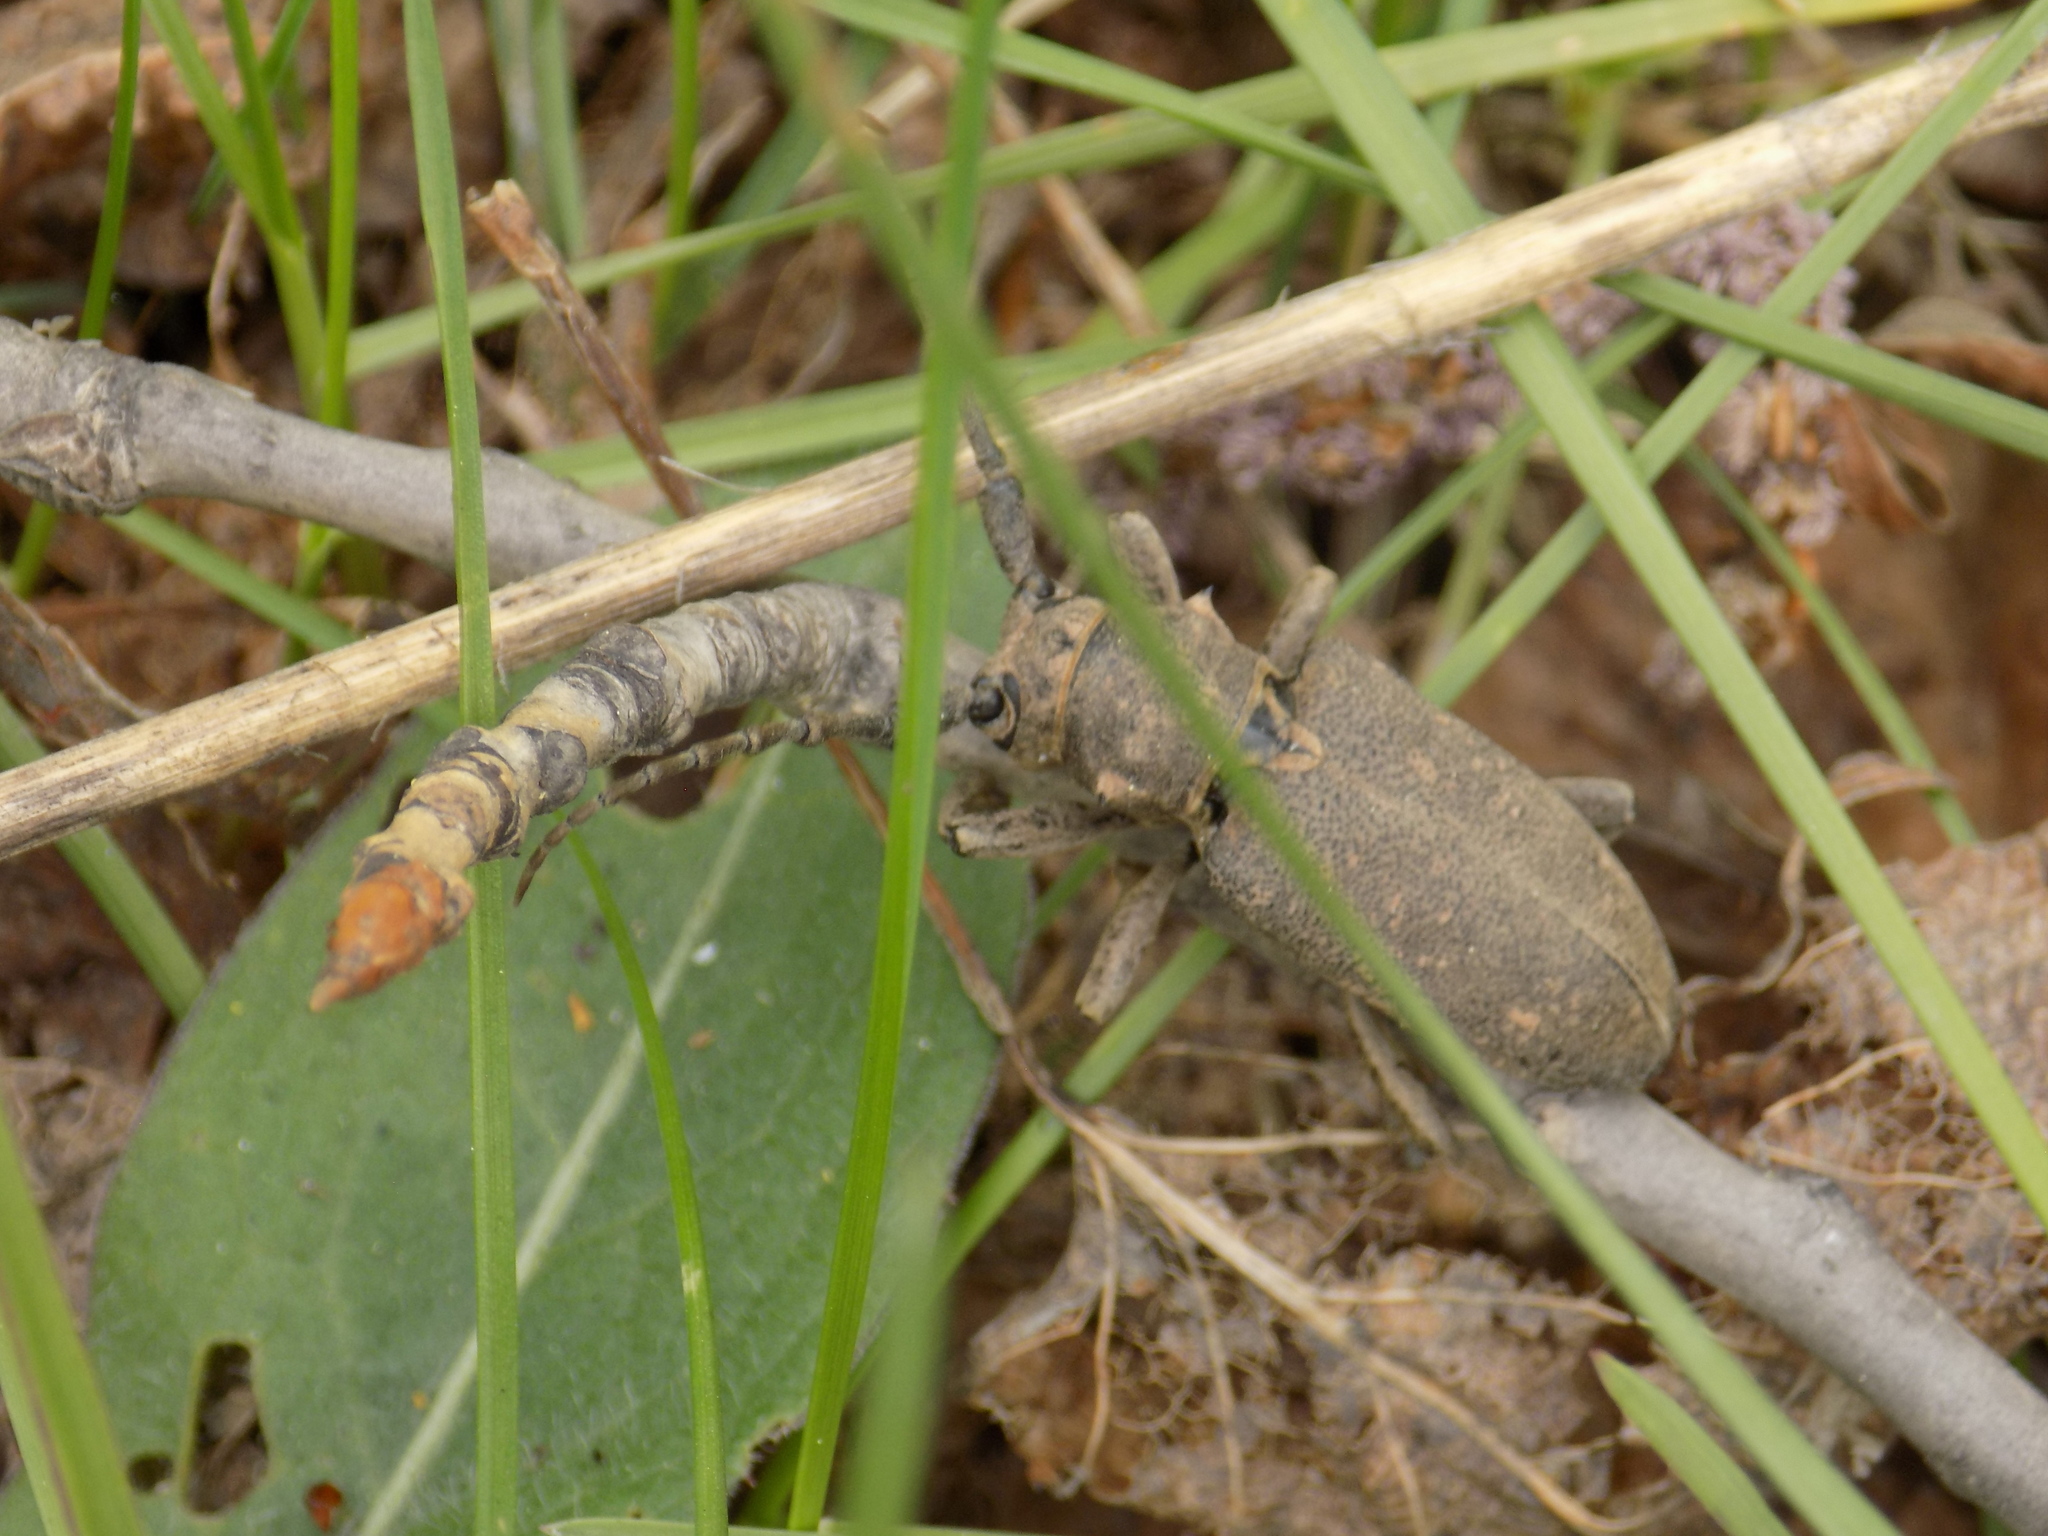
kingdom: Animalia
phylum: Arthropoda
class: Insecta
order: Coleoptera
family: Cerambycidae
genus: Lamia
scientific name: Lamia textor
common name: Weaver beetle
